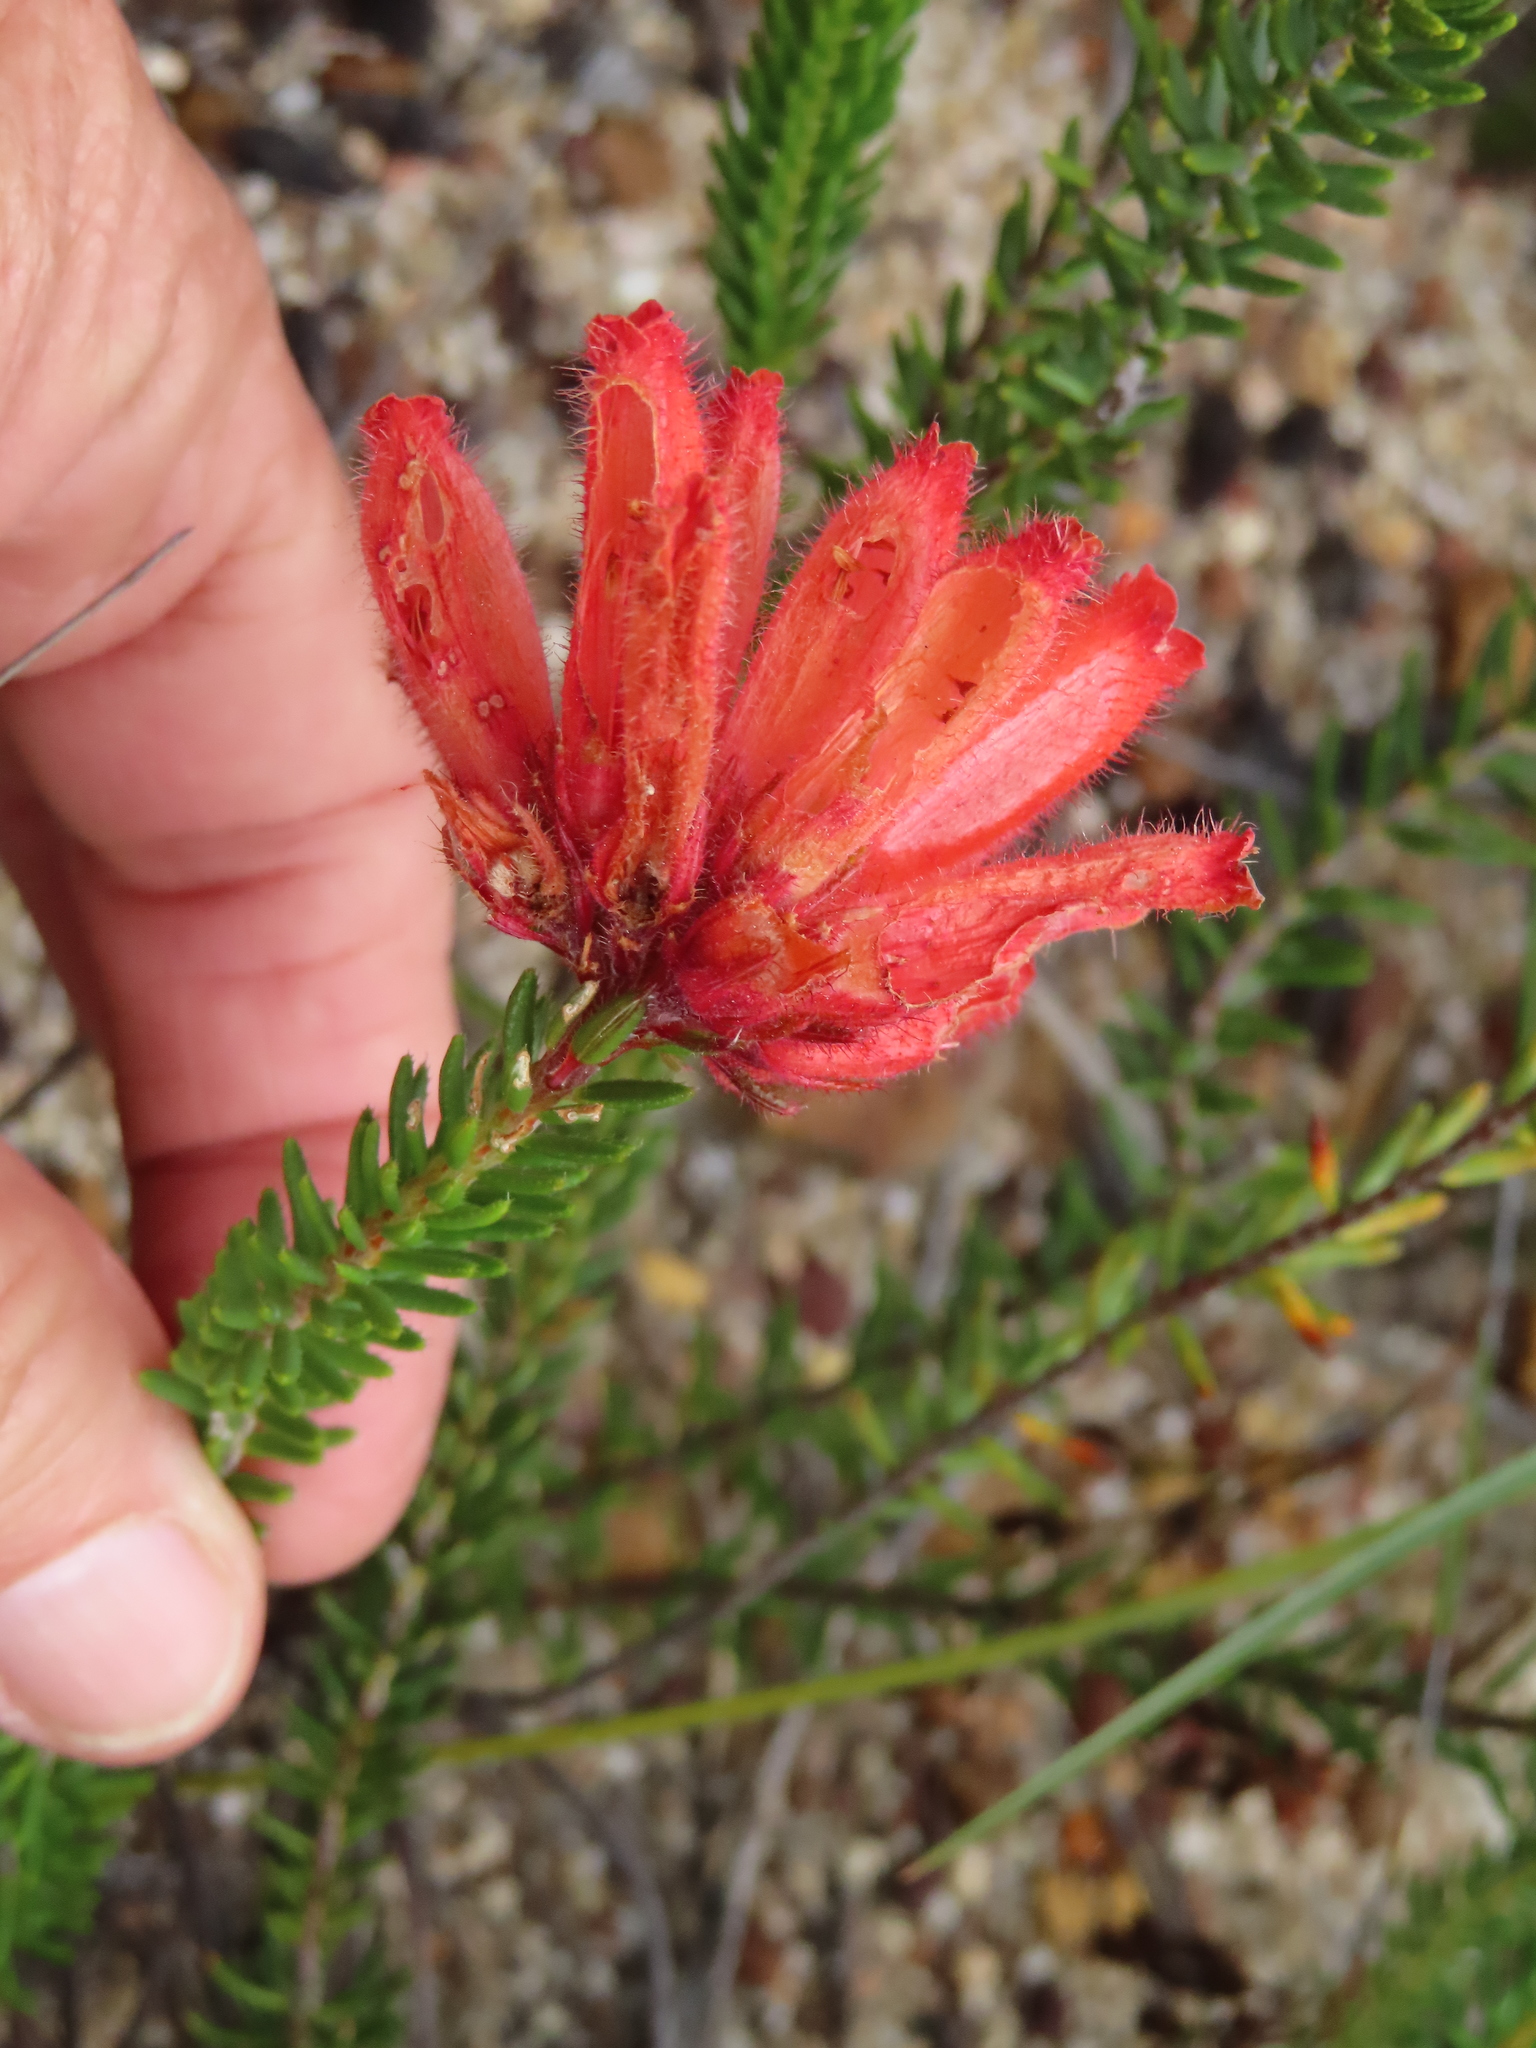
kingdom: Plantae
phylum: Tracheophyta
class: Magnoliopsida
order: Ericales
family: Ericaceae
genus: Erica
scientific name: Erica cerinthoides
